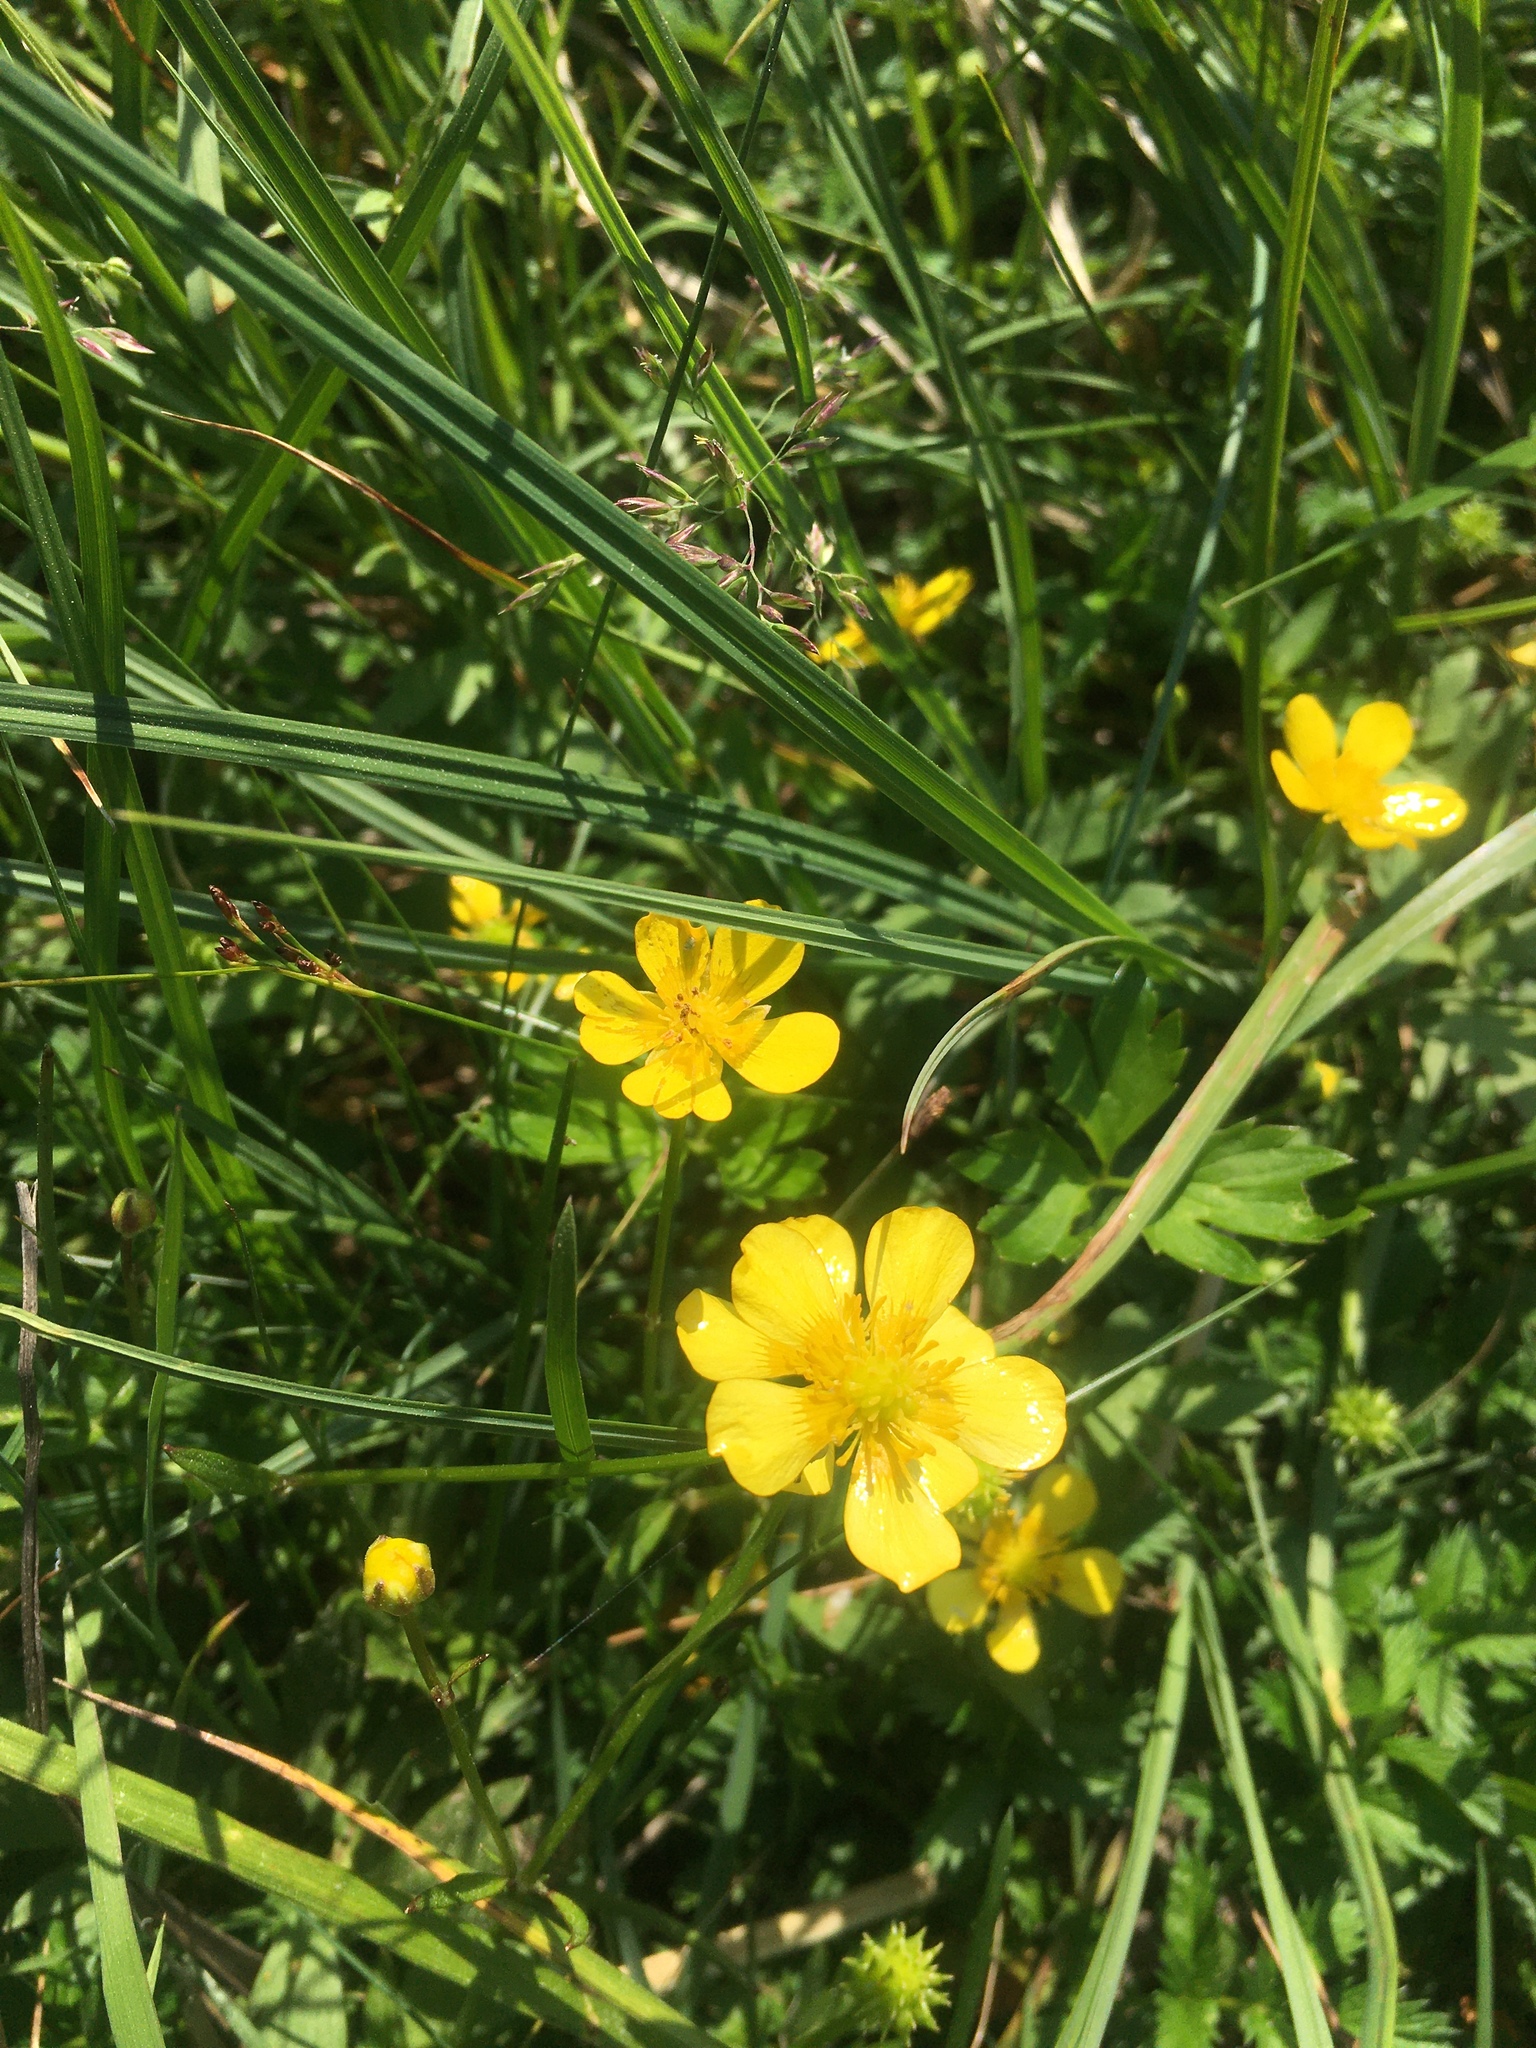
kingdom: Plantae
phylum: Tracheophyta
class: Magnoliopsida
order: Ranunculales
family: Ranunculaceae
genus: Ranunculus
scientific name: Ranunculus repens
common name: Creeping buttercup
